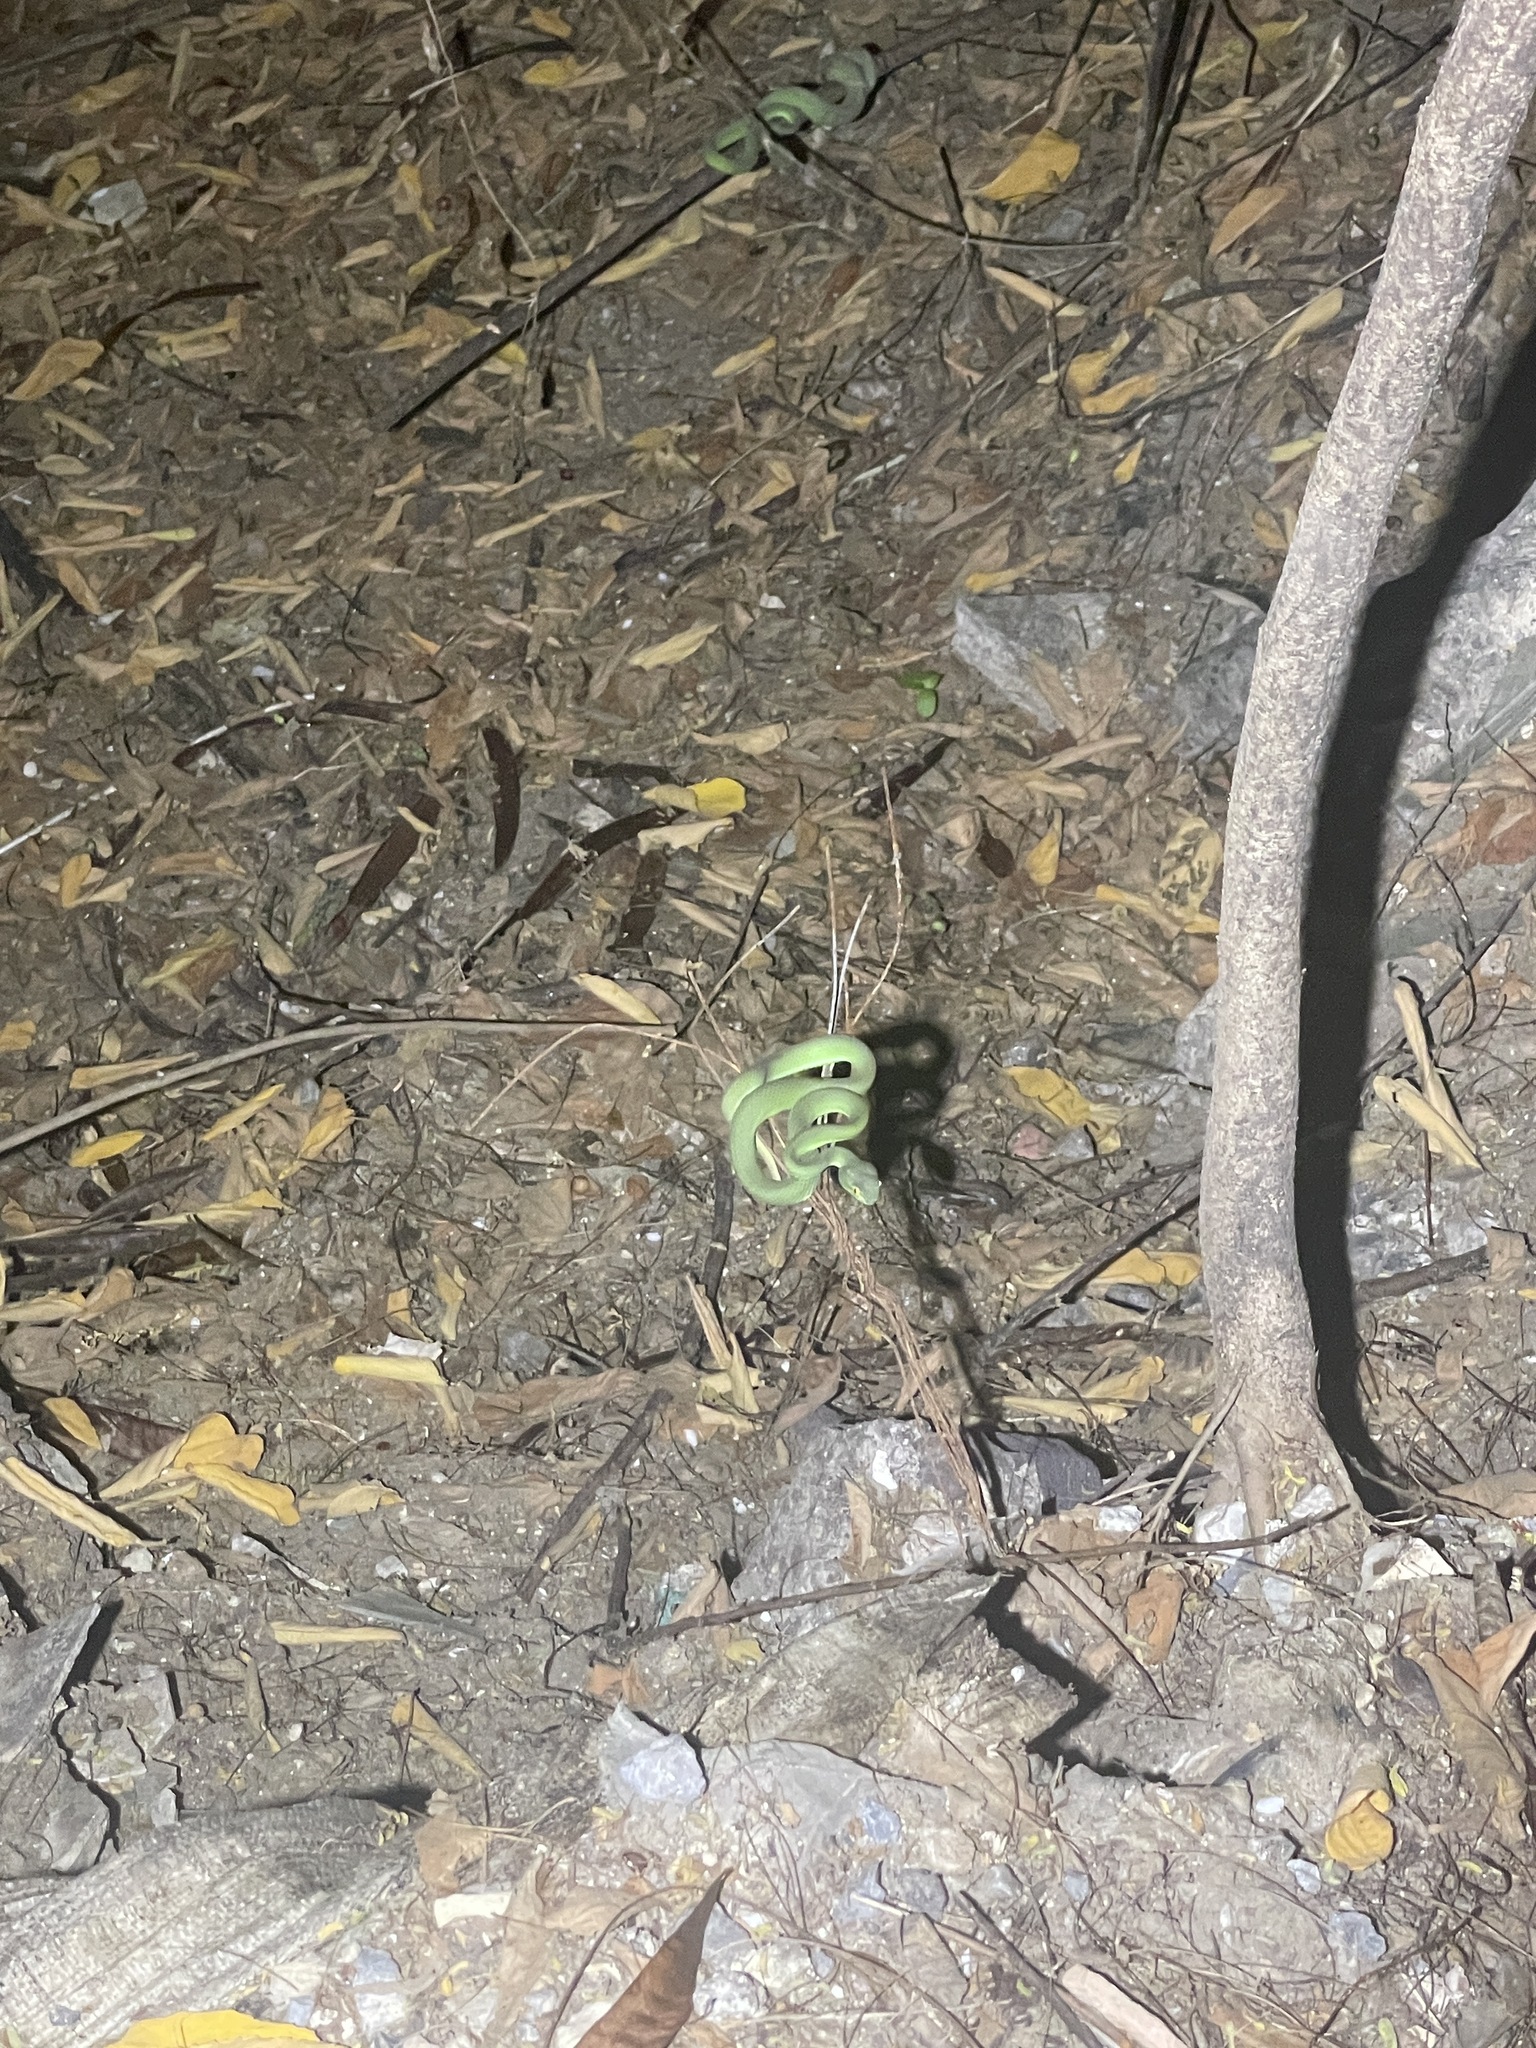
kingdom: Animalia
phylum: Chordata
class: Squamata
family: Viperidae
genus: Trimeresurus
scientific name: Trimeresurus macrops
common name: Kramer's pit viper
